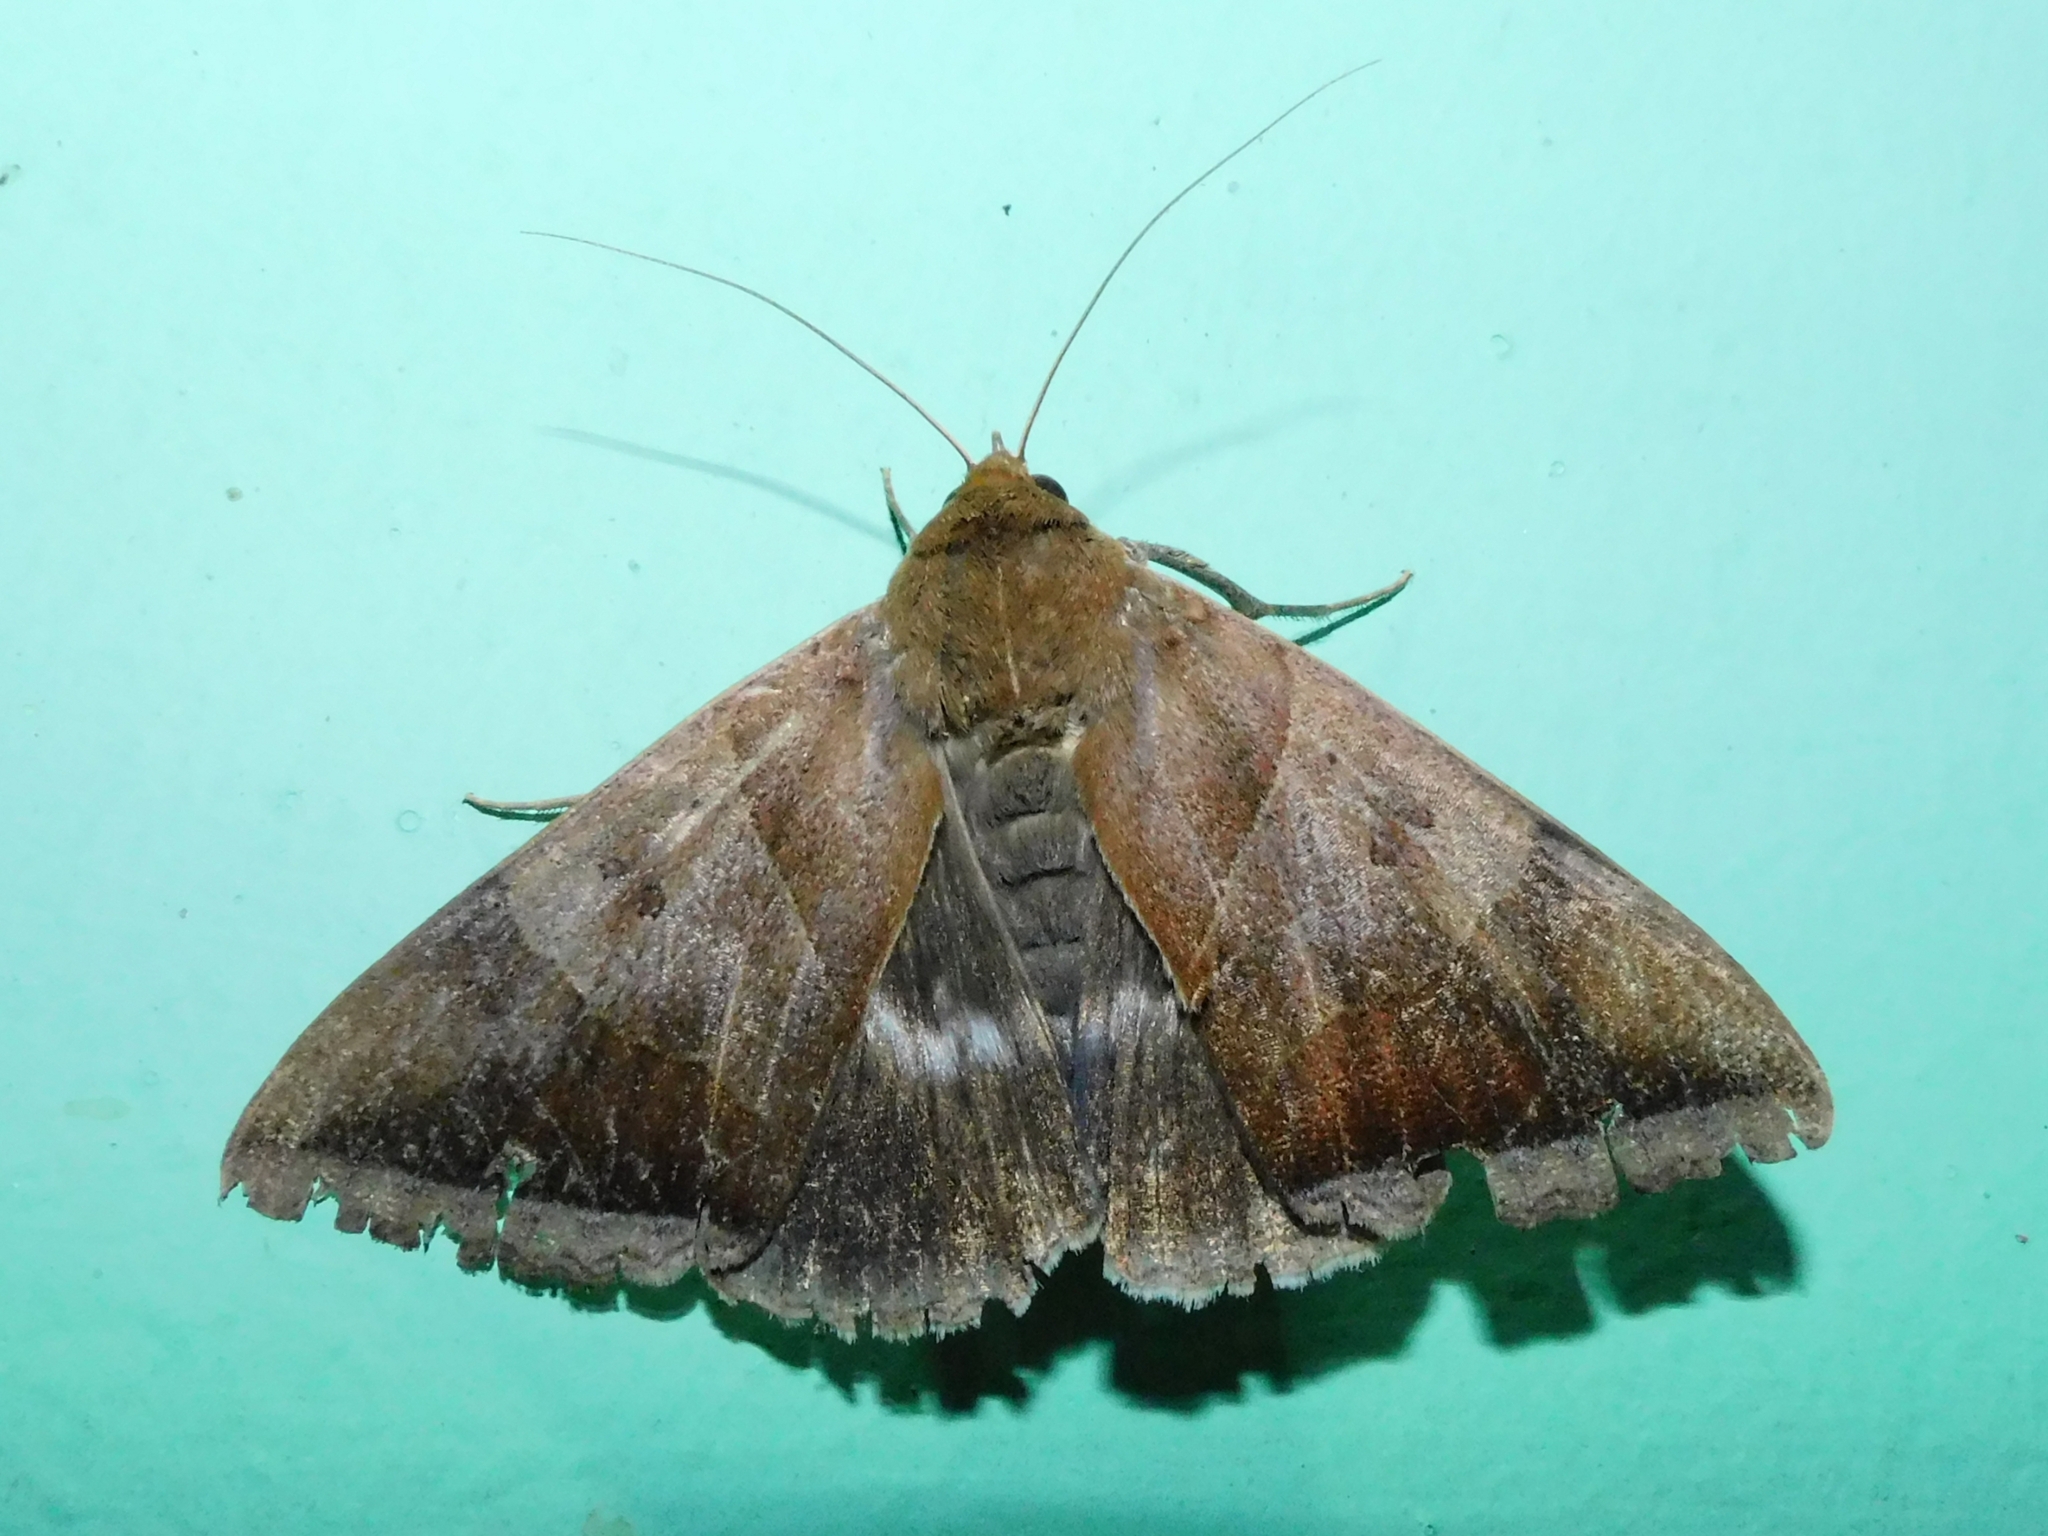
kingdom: Animalia
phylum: Arthropoda
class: Insecta
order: Lepidoptera
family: Erebidae
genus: Artena
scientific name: Artena dotata
